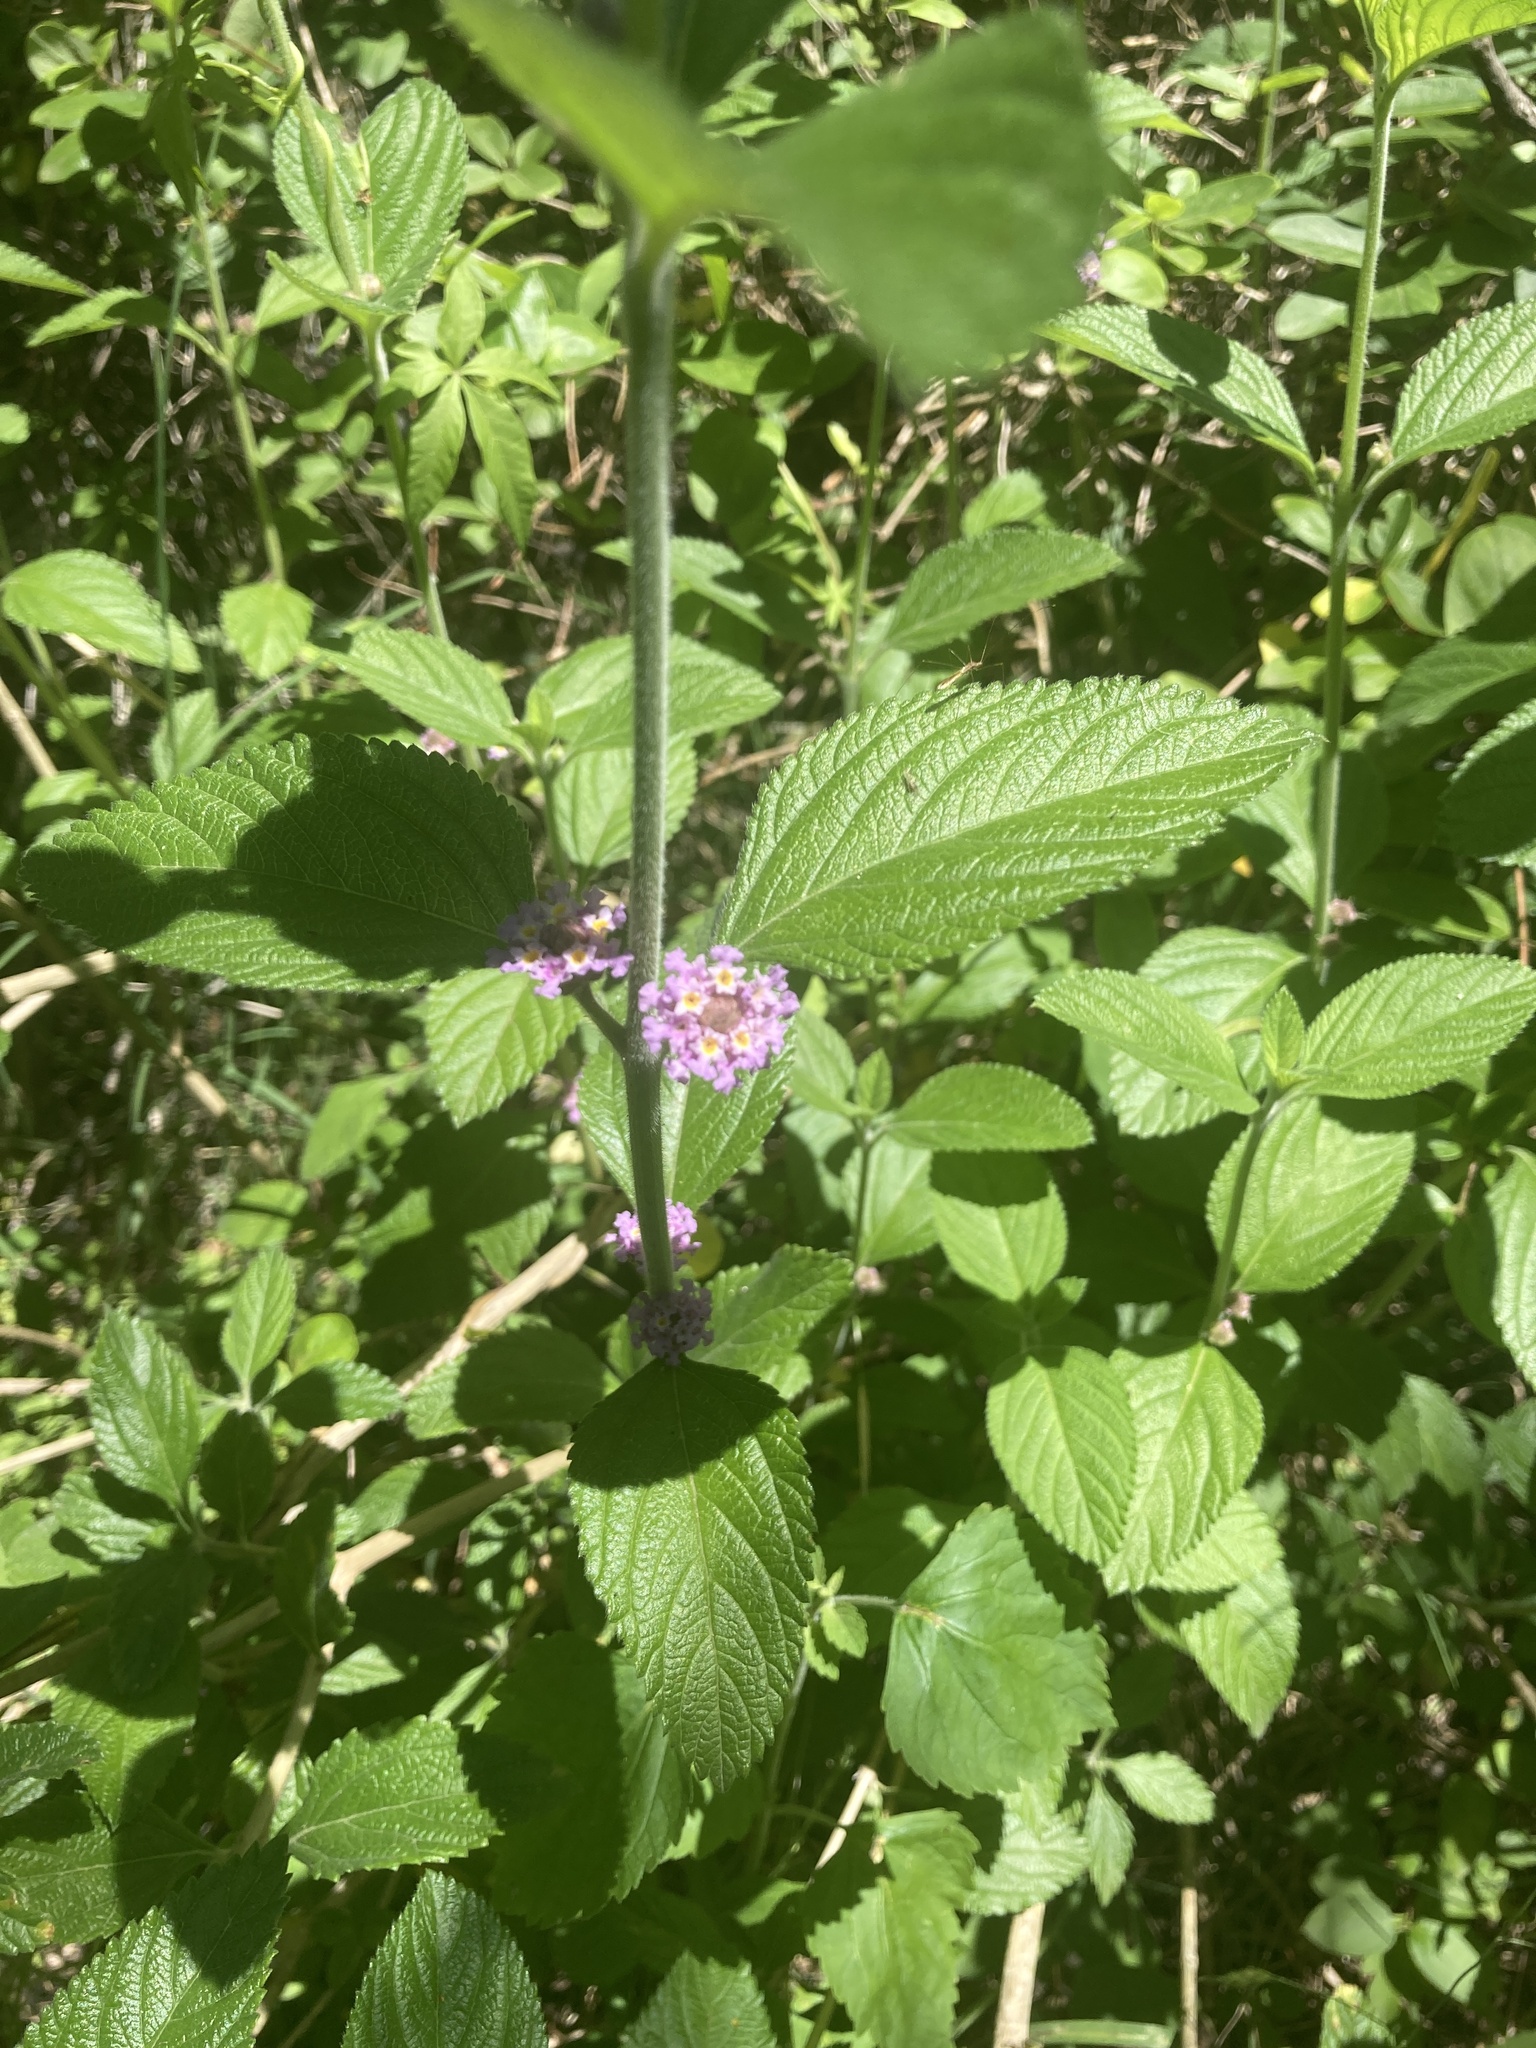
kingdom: Plantae
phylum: Tracheophyta
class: Magnoliopsida
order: Lamiales
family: Verbenaceae
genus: Lippia
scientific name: Lippia alba
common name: Bushy matgrass
